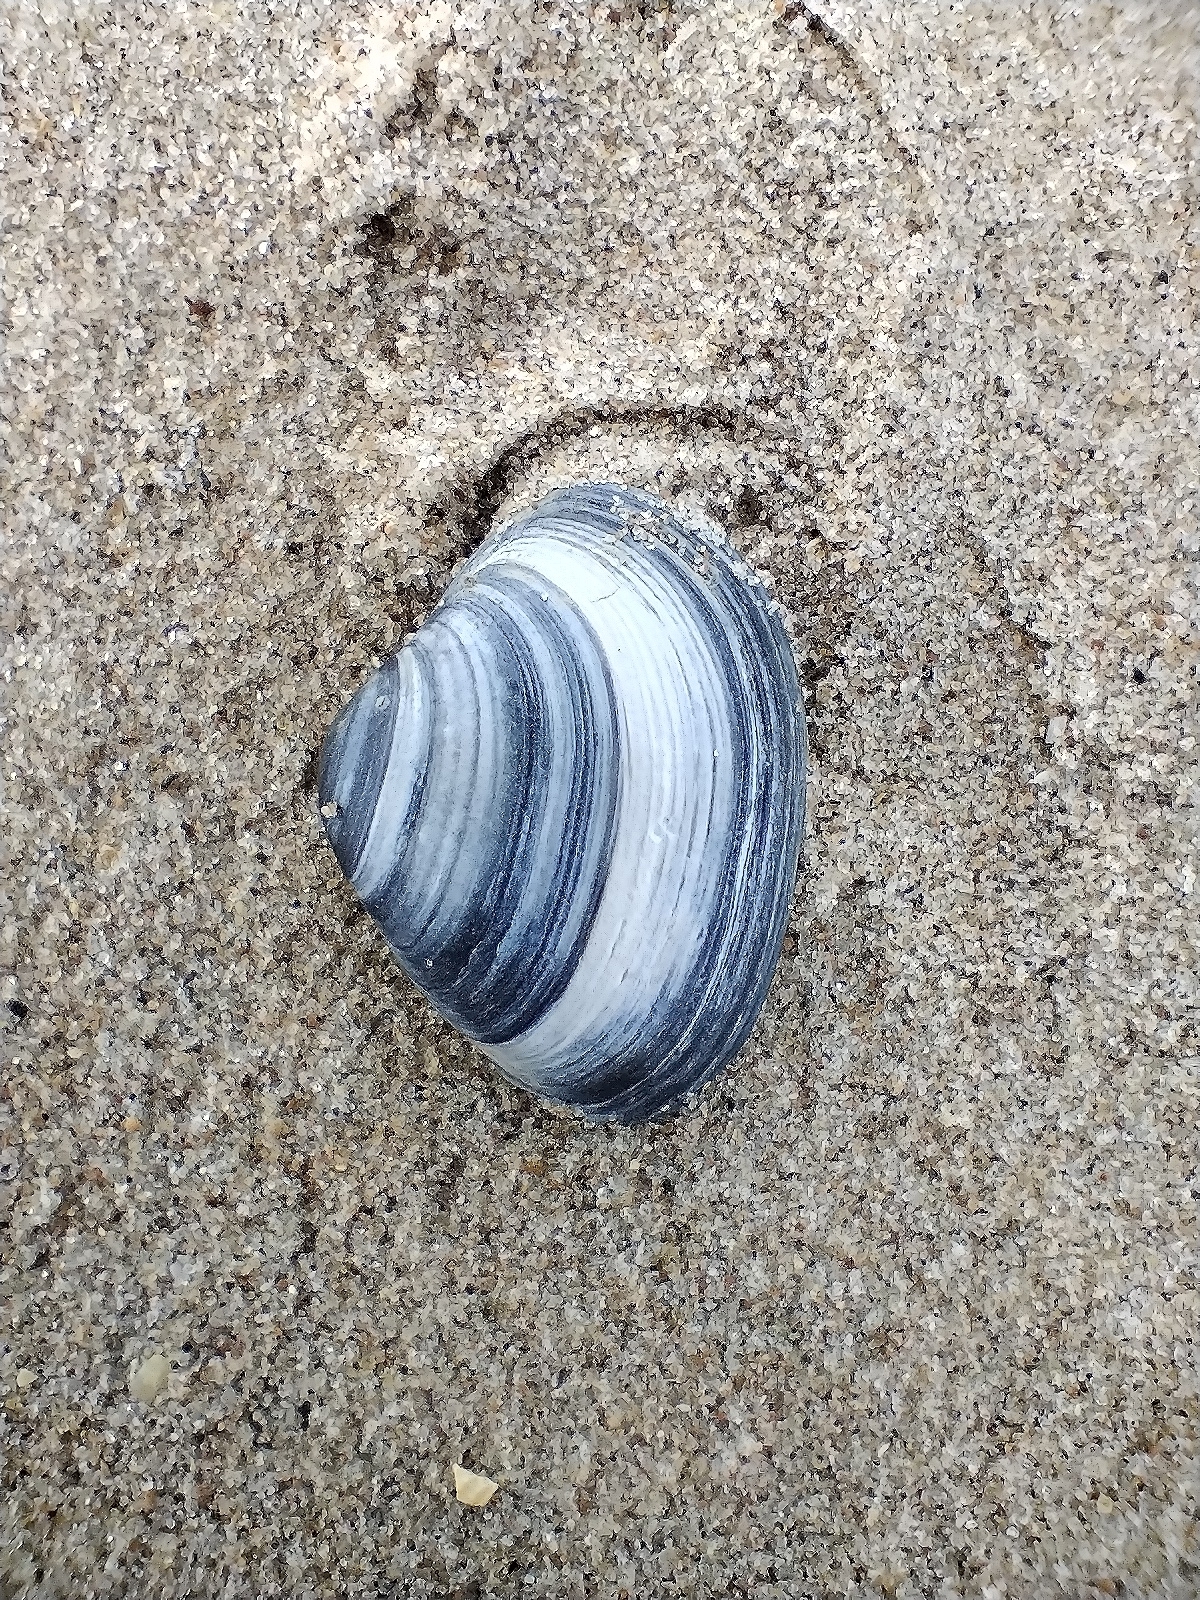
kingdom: Animalia
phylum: Mollusca
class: Bivalvia
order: Venerida
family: Mactridae
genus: Spisula
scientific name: Spisula solida
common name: Thick trough shell
